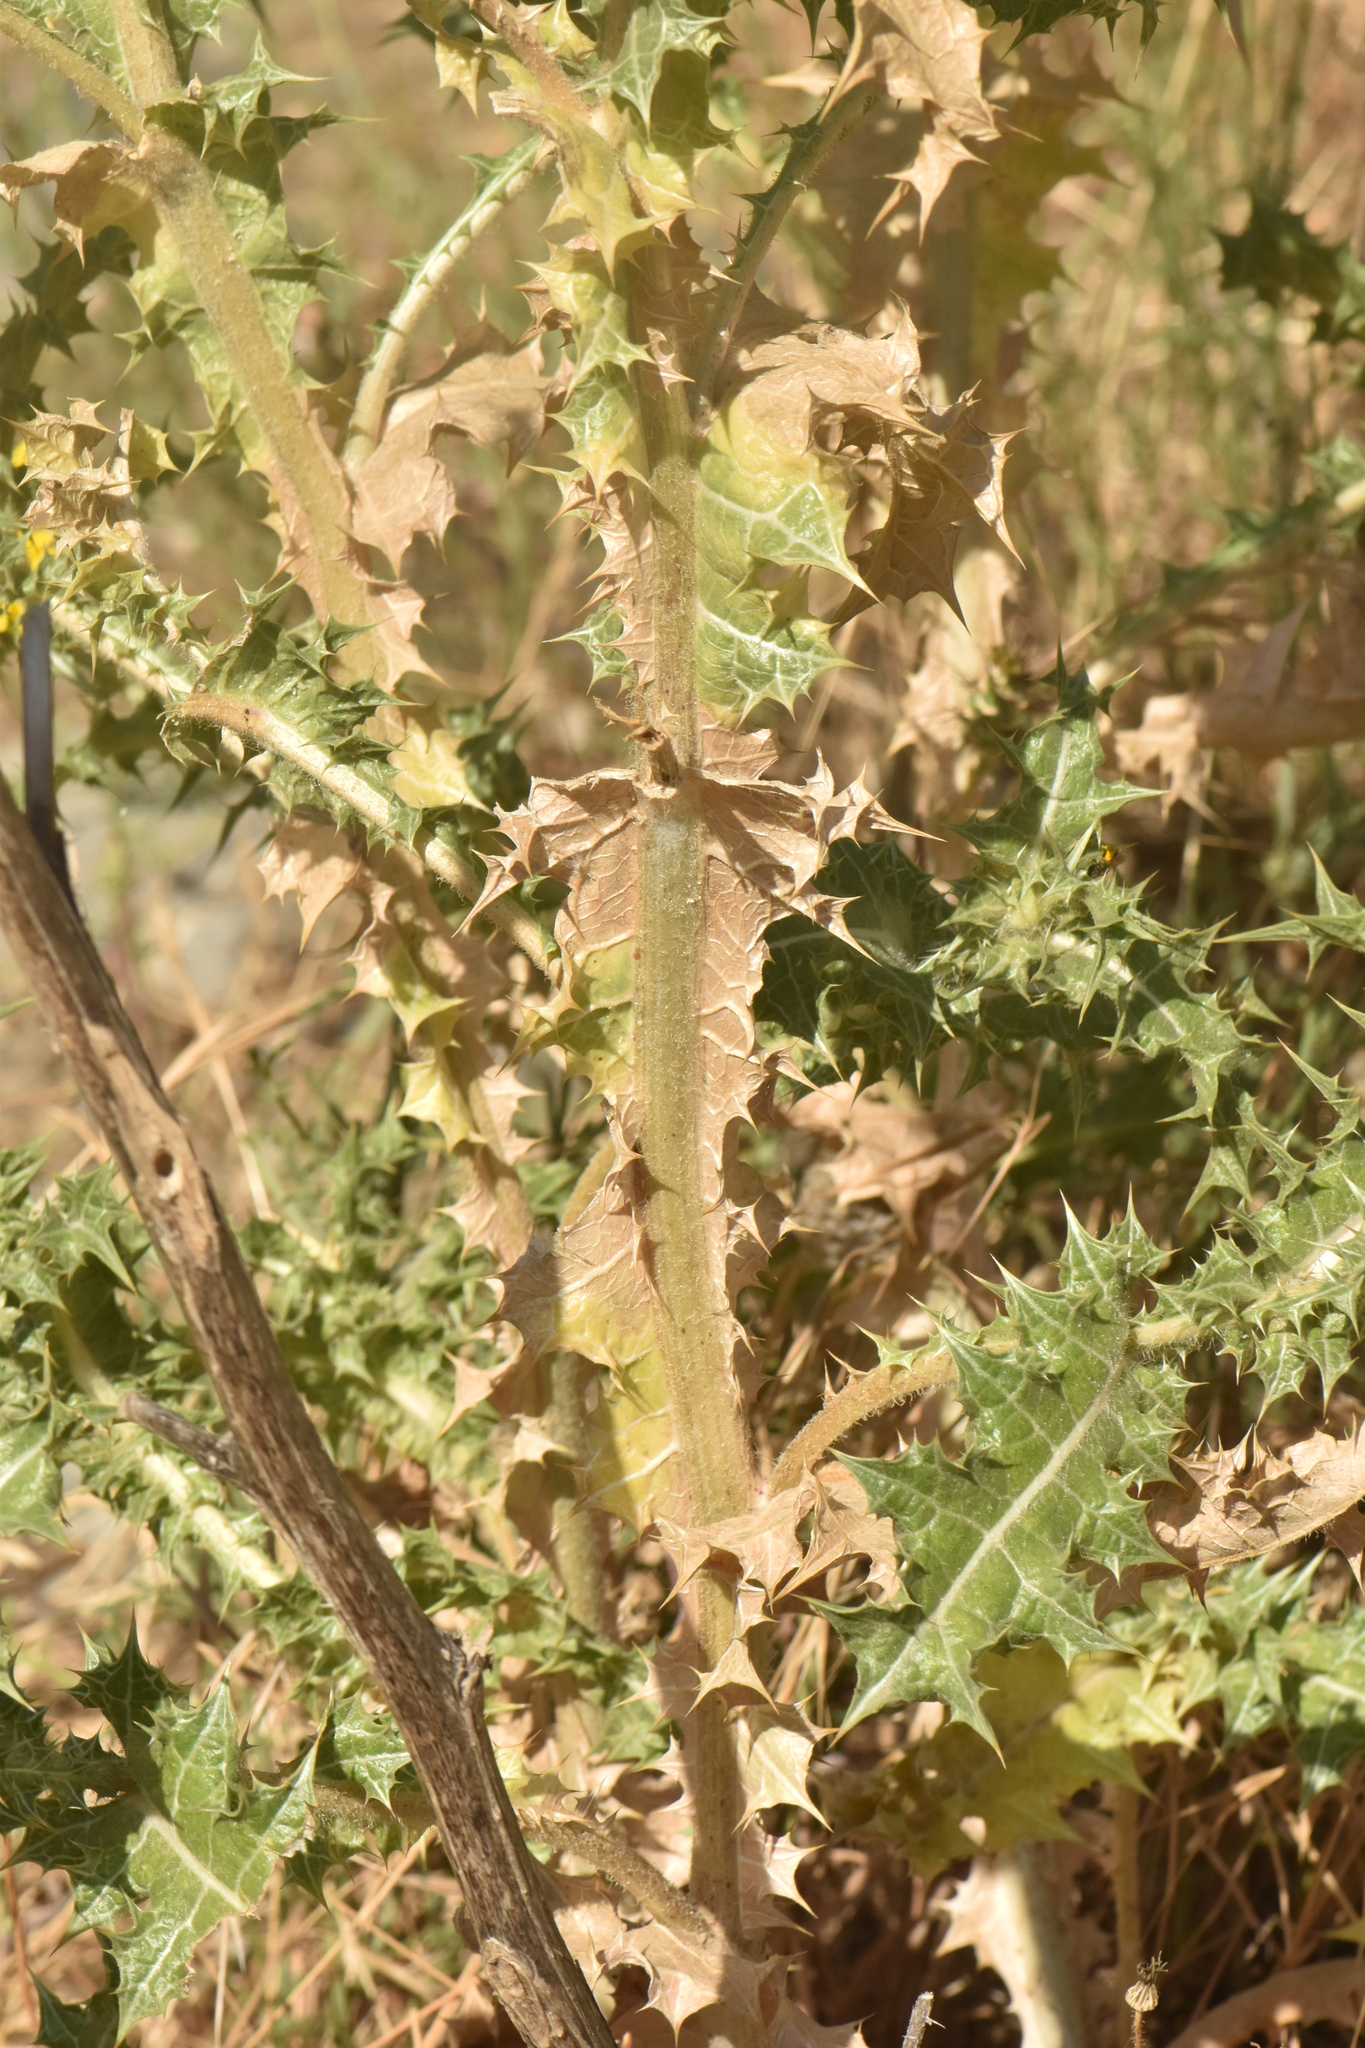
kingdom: Plantae
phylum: Tracheophyta
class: Magnoliopsida
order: Asterales
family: Asteraceae
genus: Scolymus
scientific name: Scolymus hispanicus
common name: Golden thistle
